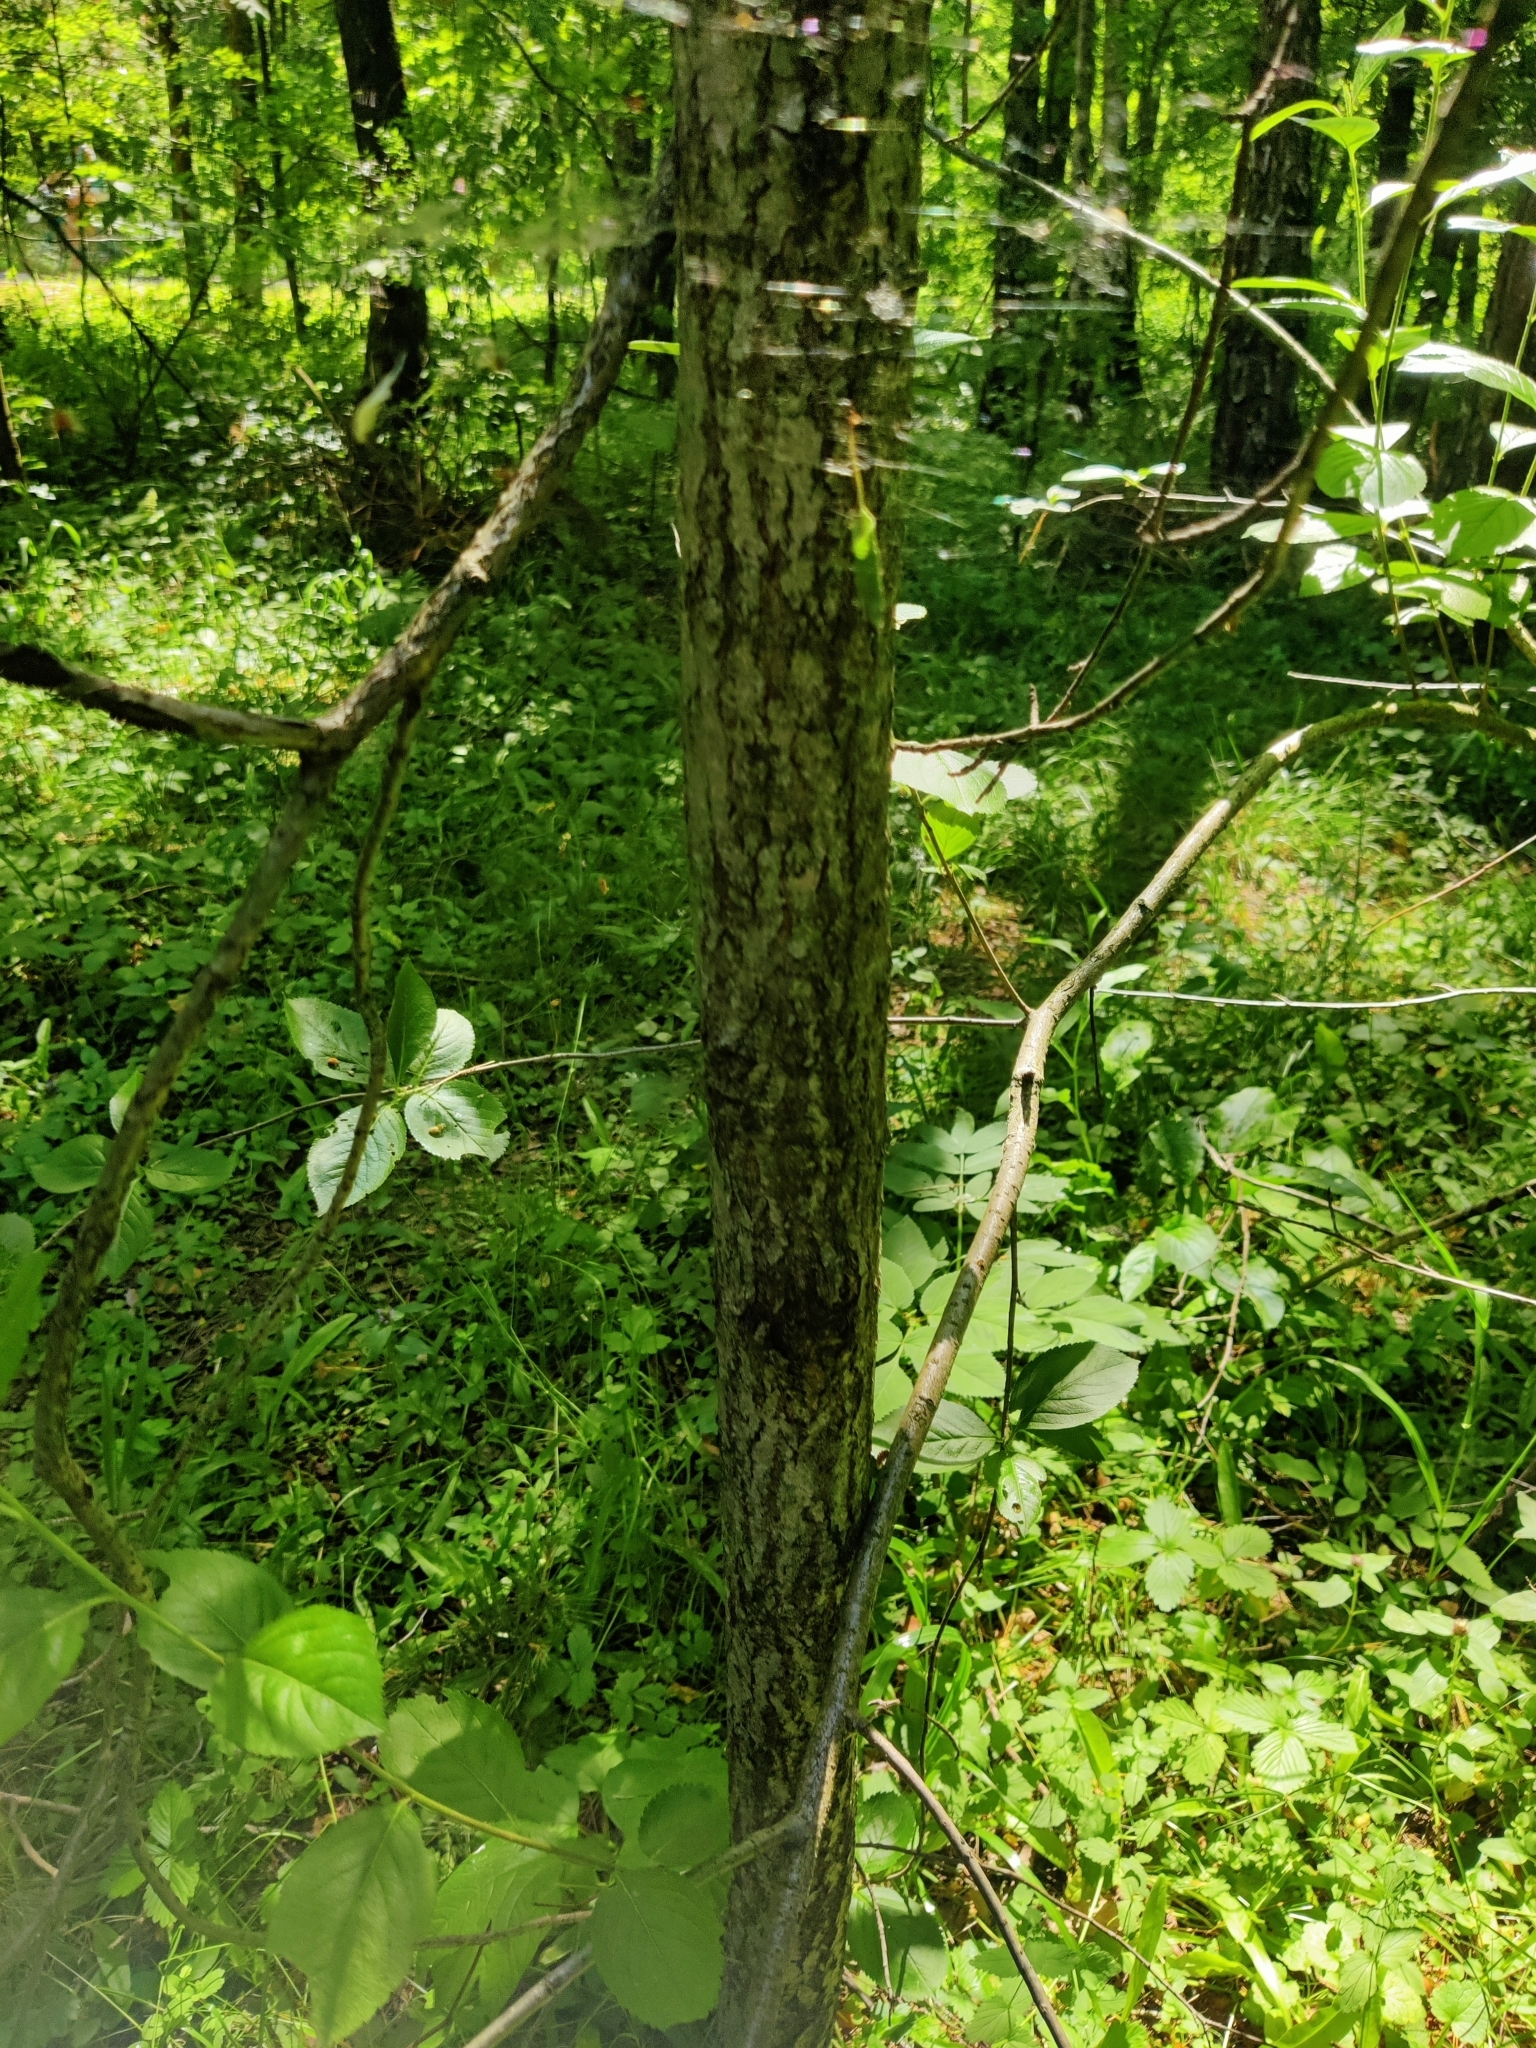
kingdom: Plantae
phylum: Tracheophyta
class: Magnoliopsida
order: Rosales
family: Rosaceae
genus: Sorbaronia
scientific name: Sorbaronia arsenii
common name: Arsène's mountain-ash
